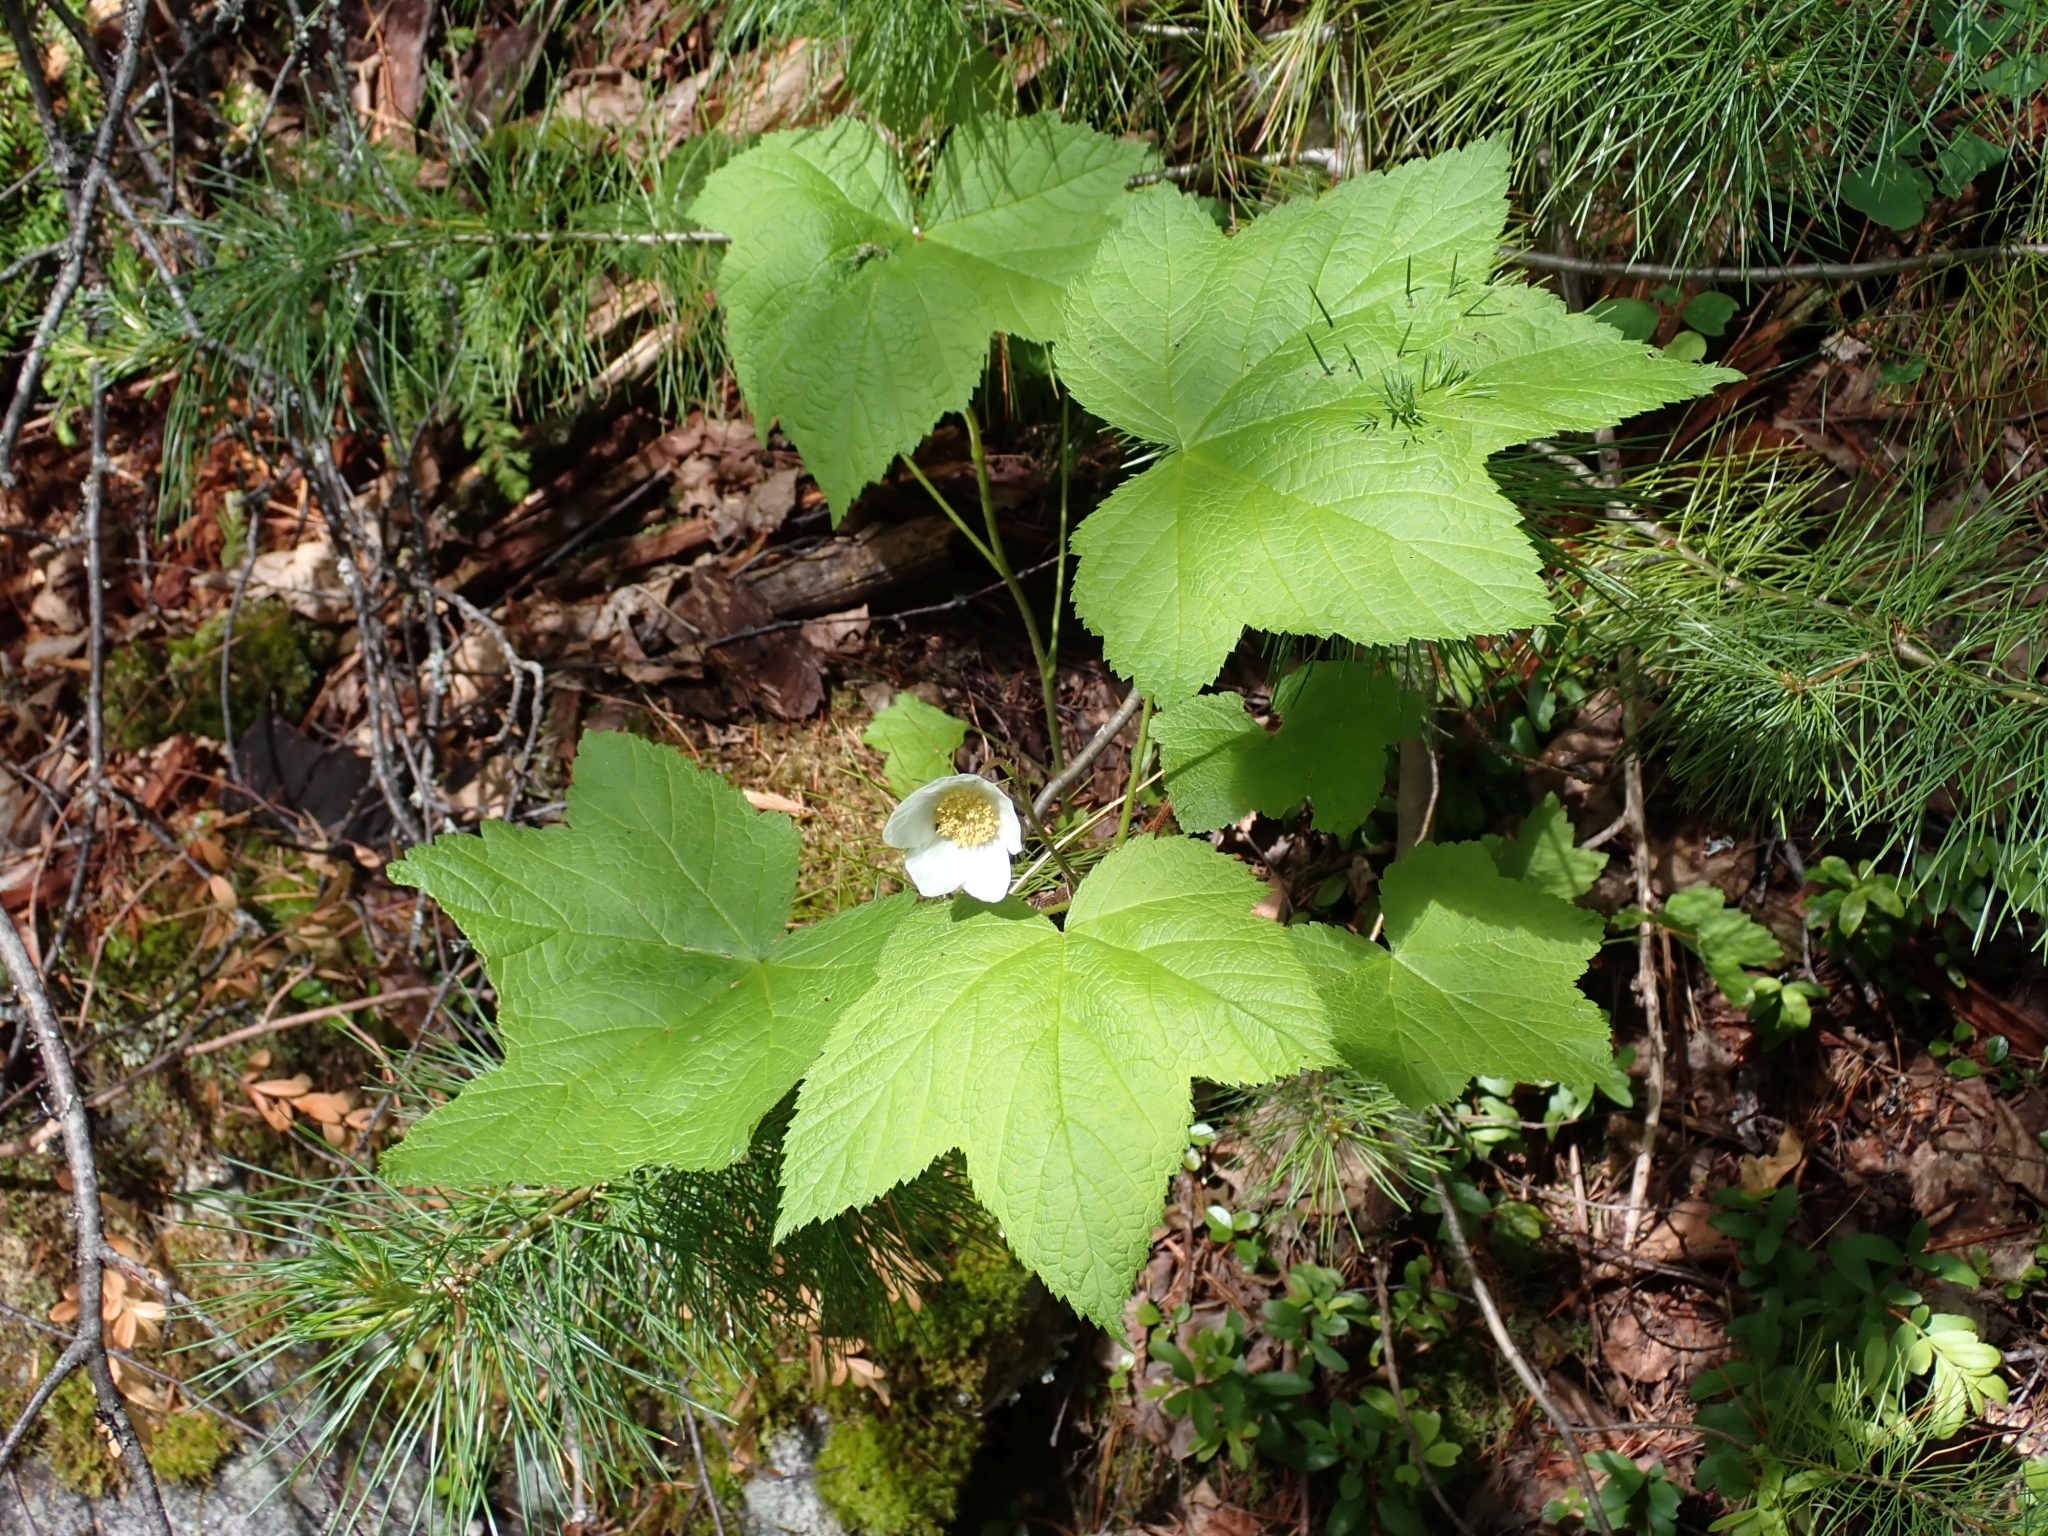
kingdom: Plantae
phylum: Tracheophyta
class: Magnoliopsida
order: Rosales
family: Rosaceae
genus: Rubus
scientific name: Rubus parviflorus
